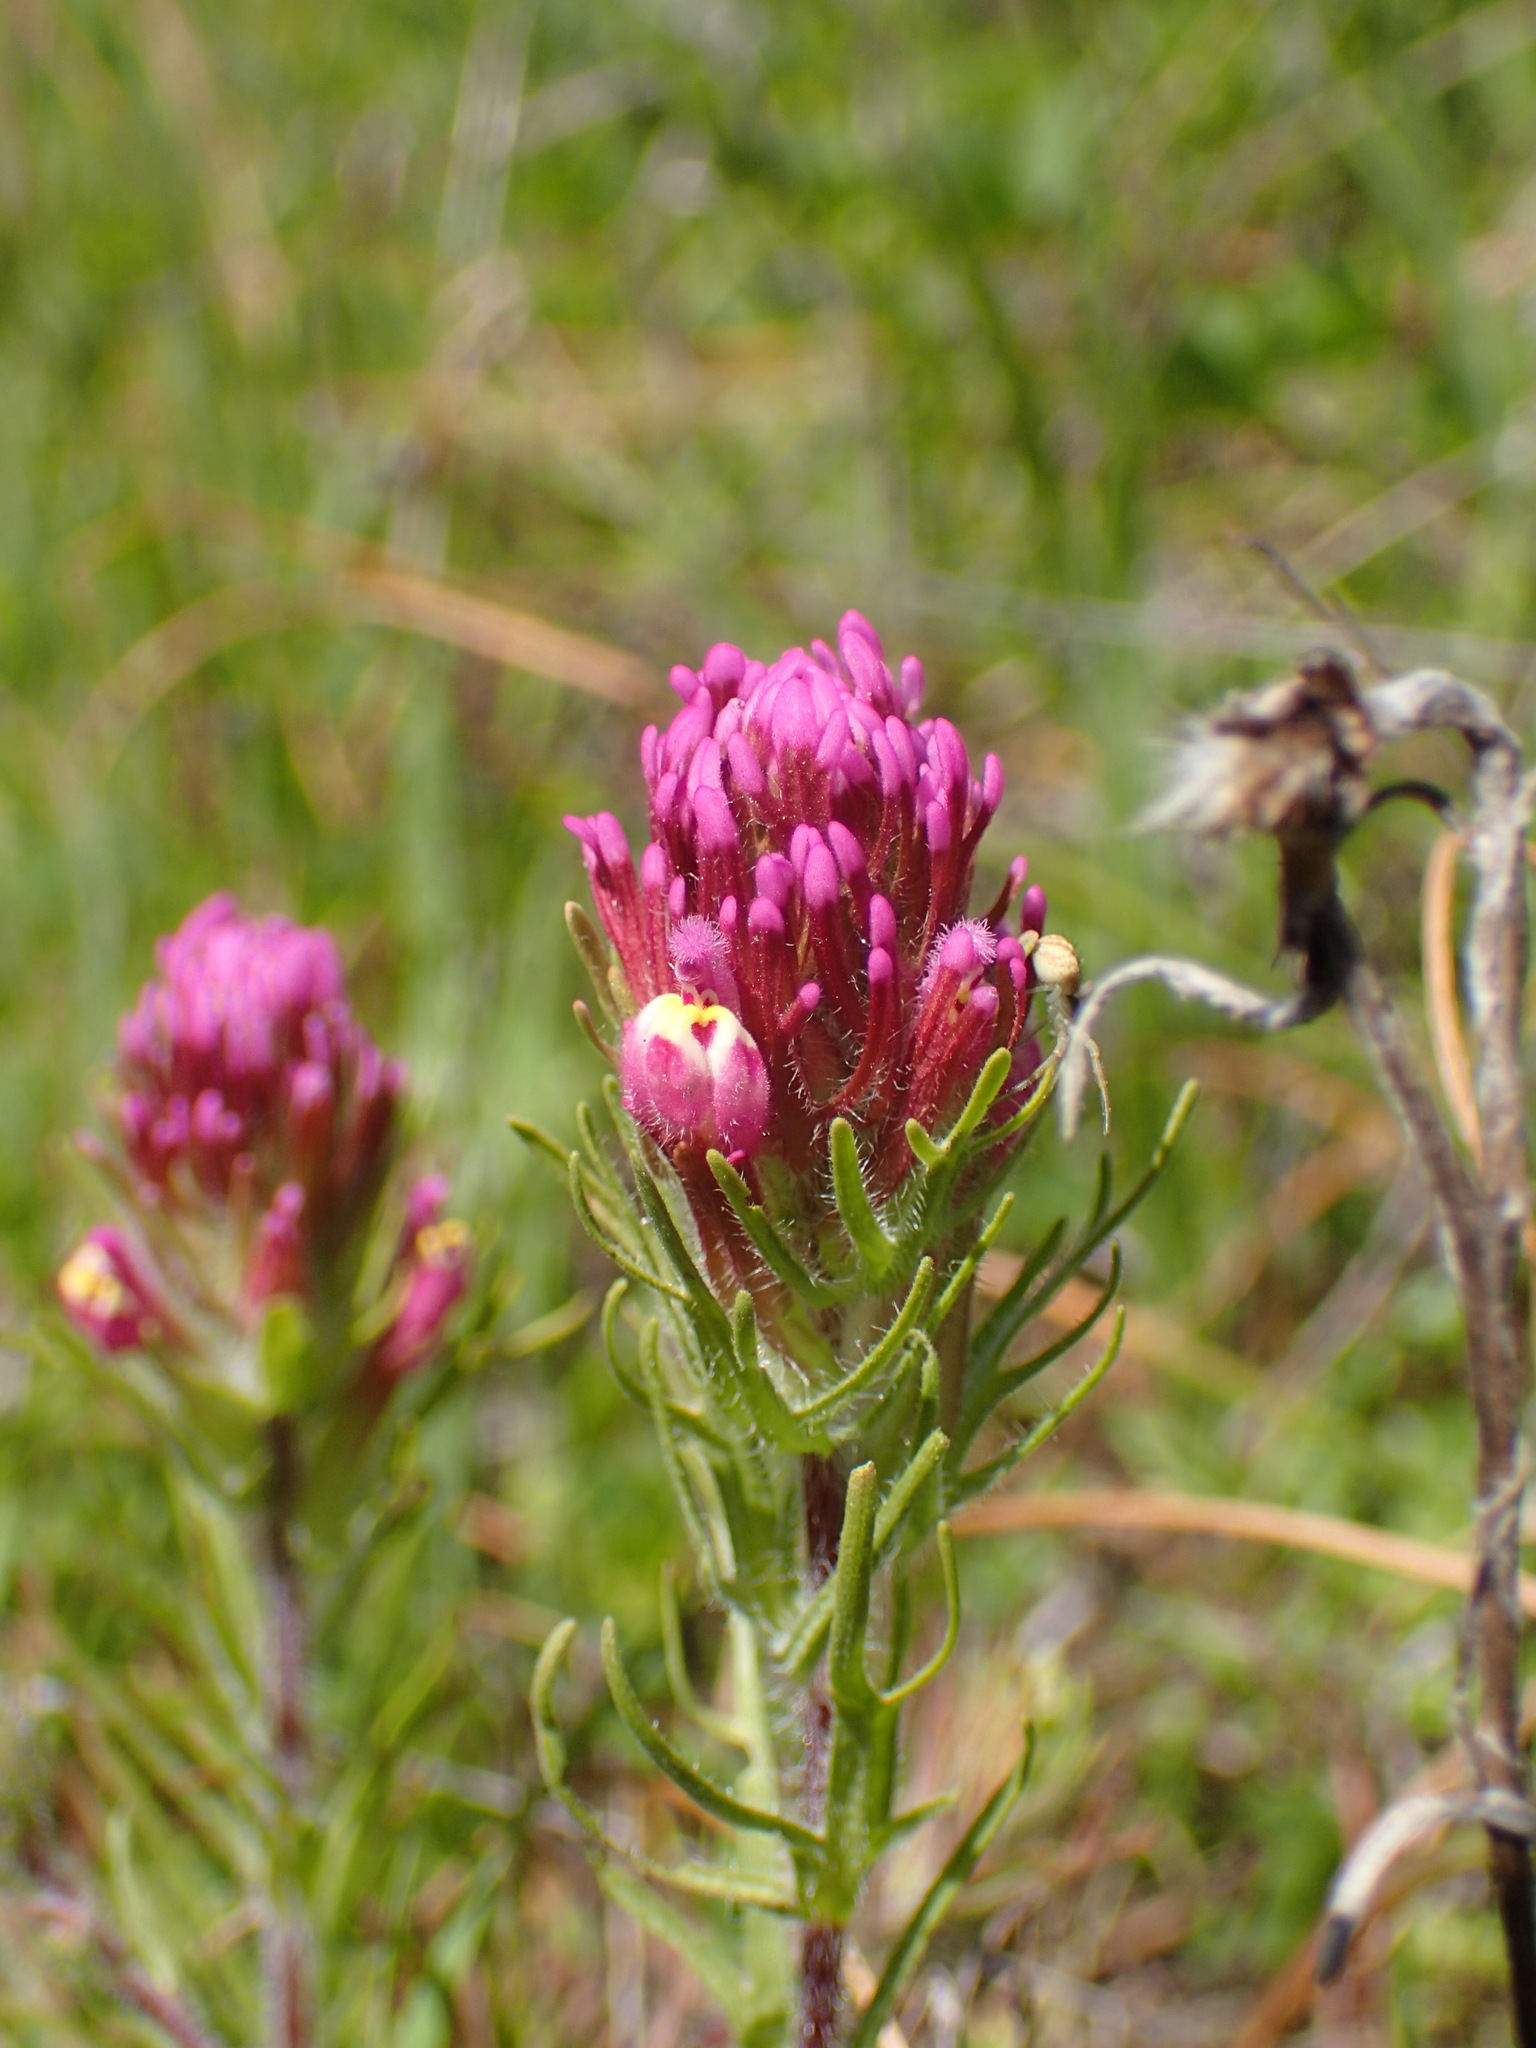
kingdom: Plantae
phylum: Tracheophyta
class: Magnoliopsida
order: Lamiales
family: Orobanchaceae
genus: Castilleja
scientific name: Castilleja exserta
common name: Purple owl-clover
